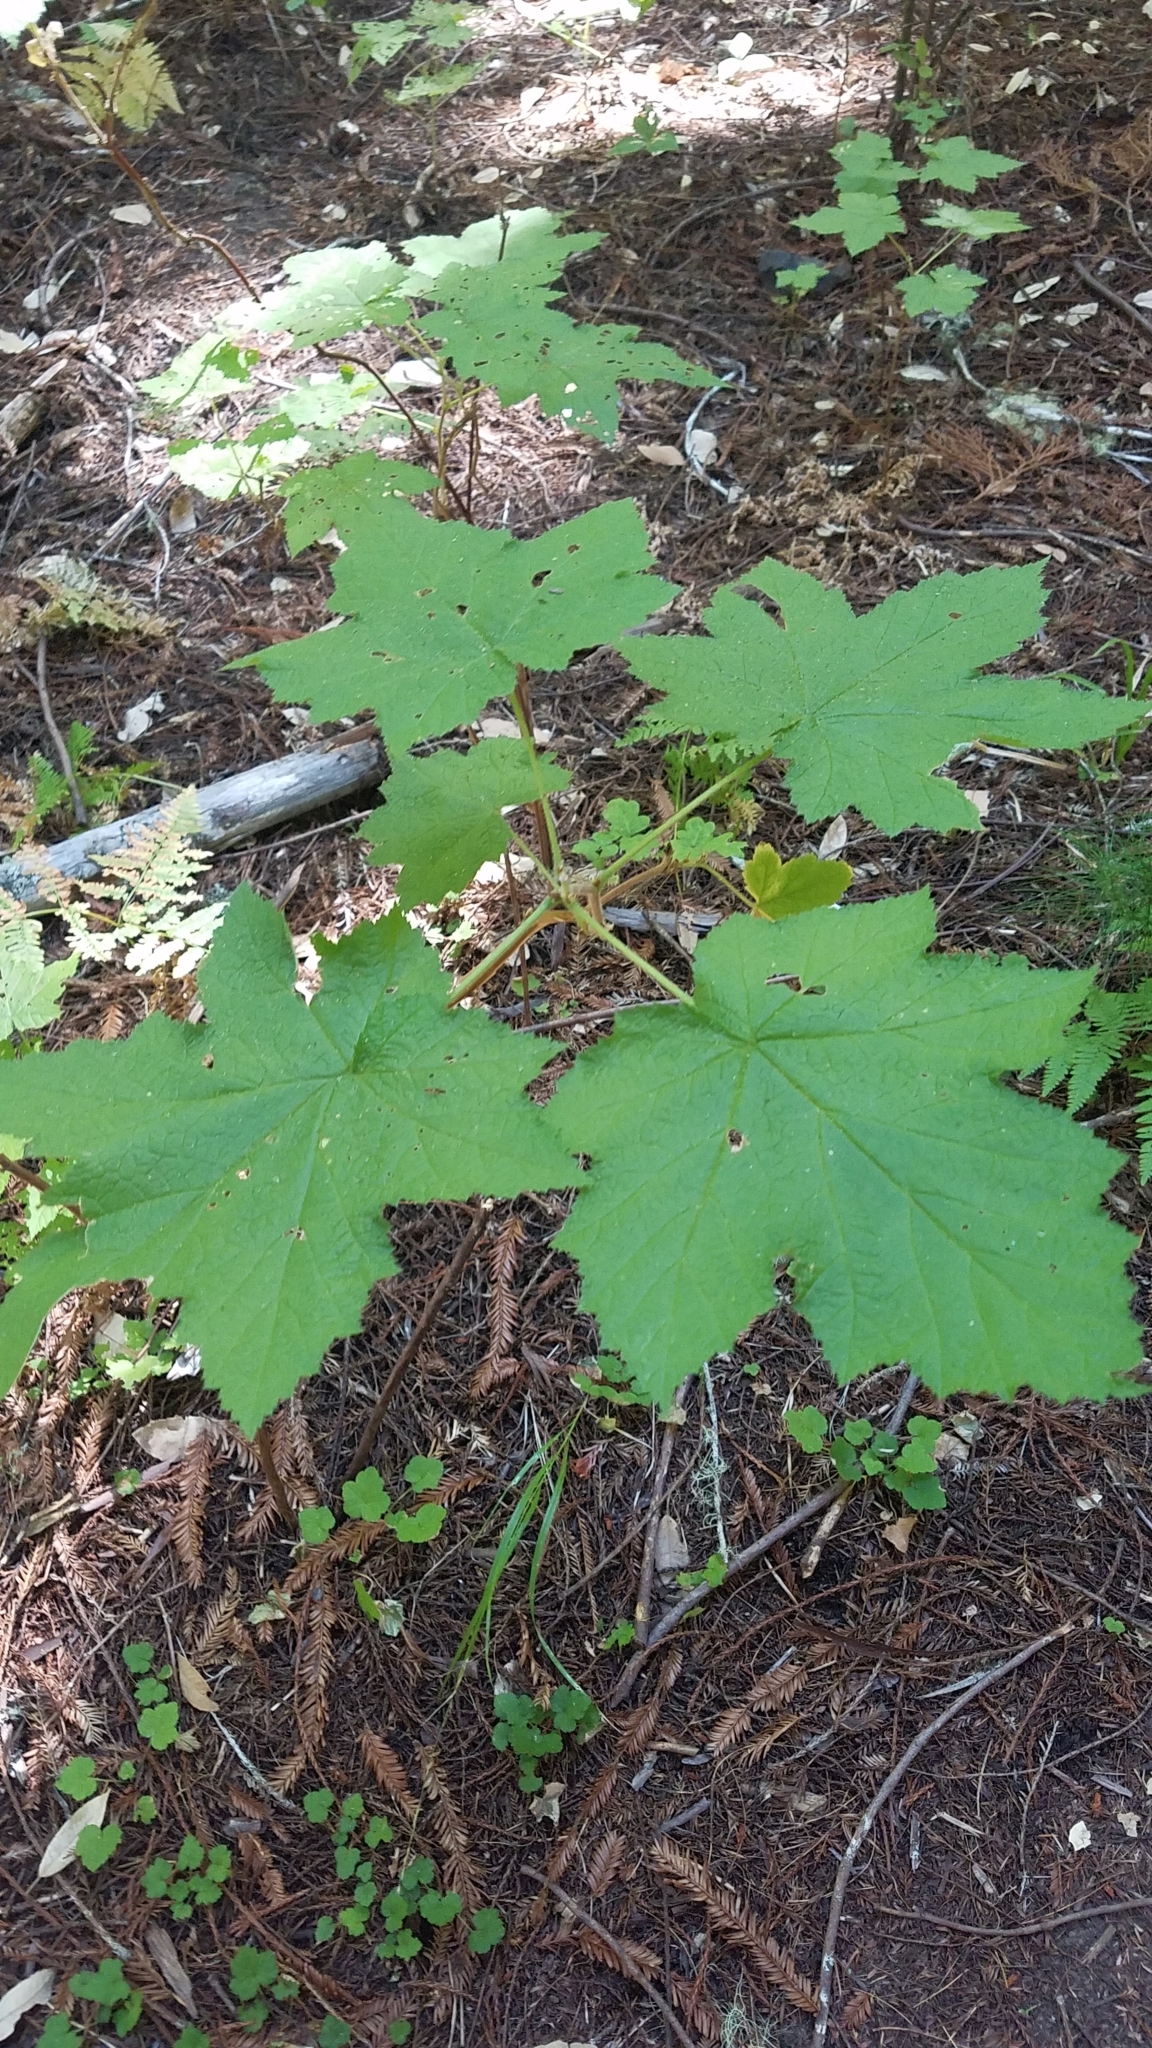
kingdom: Plantae
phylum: Tracheophyta
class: Magnoliopsida
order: Rosales
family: Rosaceae
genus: Rubus
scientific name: Rubus parviflorus
